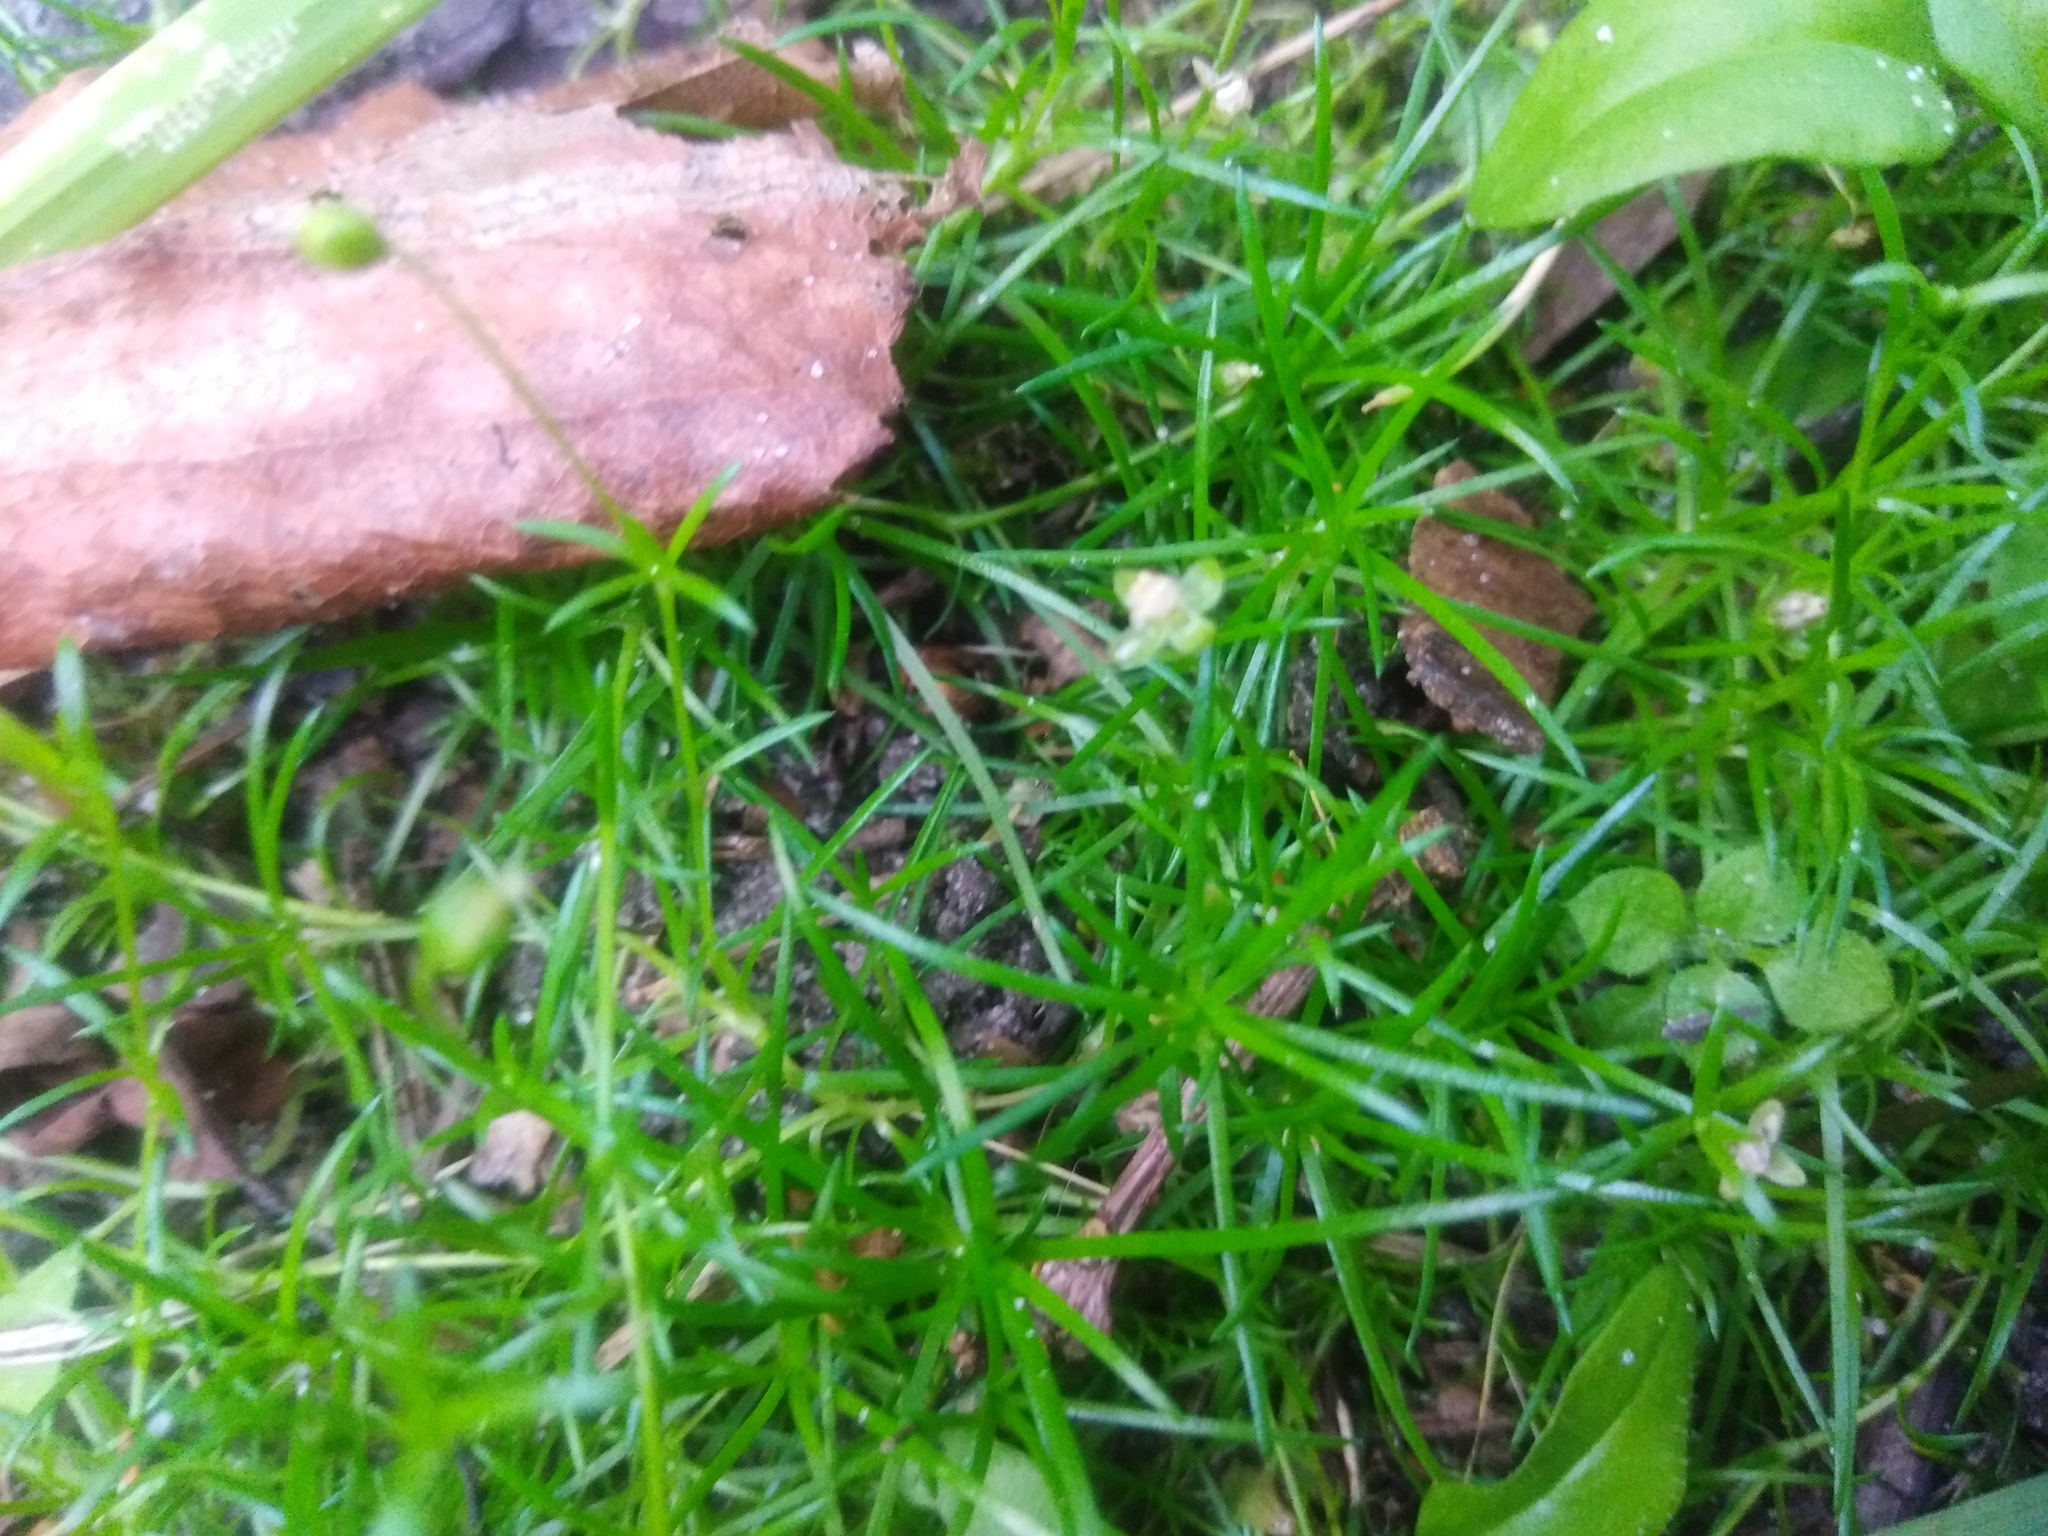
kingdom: Plantae
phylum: Tracheophyta
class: Magnoliopsida
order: Caryophyllales
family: Caryophyllaceae
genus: Sagina
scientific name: Sagina procumbens
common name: Procumbent pearlwort
